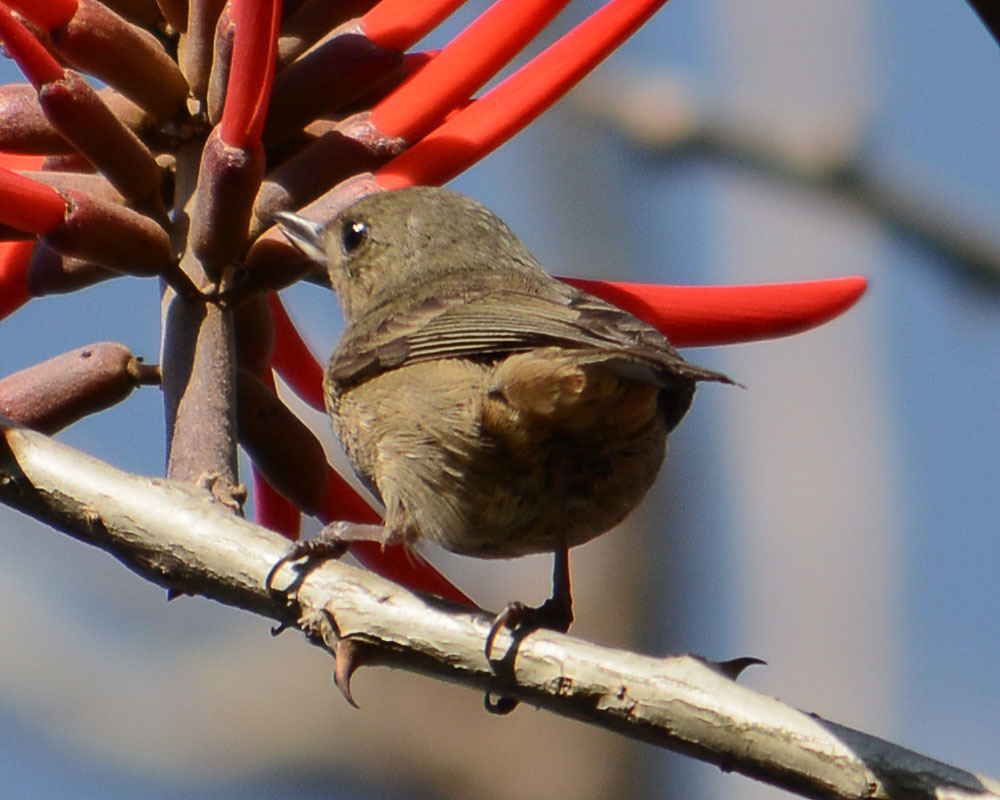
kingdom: Animalia
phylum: Chordata
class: Aves
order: Passeriformes
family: Thraupidae
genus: Diglossa
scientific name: Diglossa baritula
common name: Cinnamon-bellied flowerpiercer
